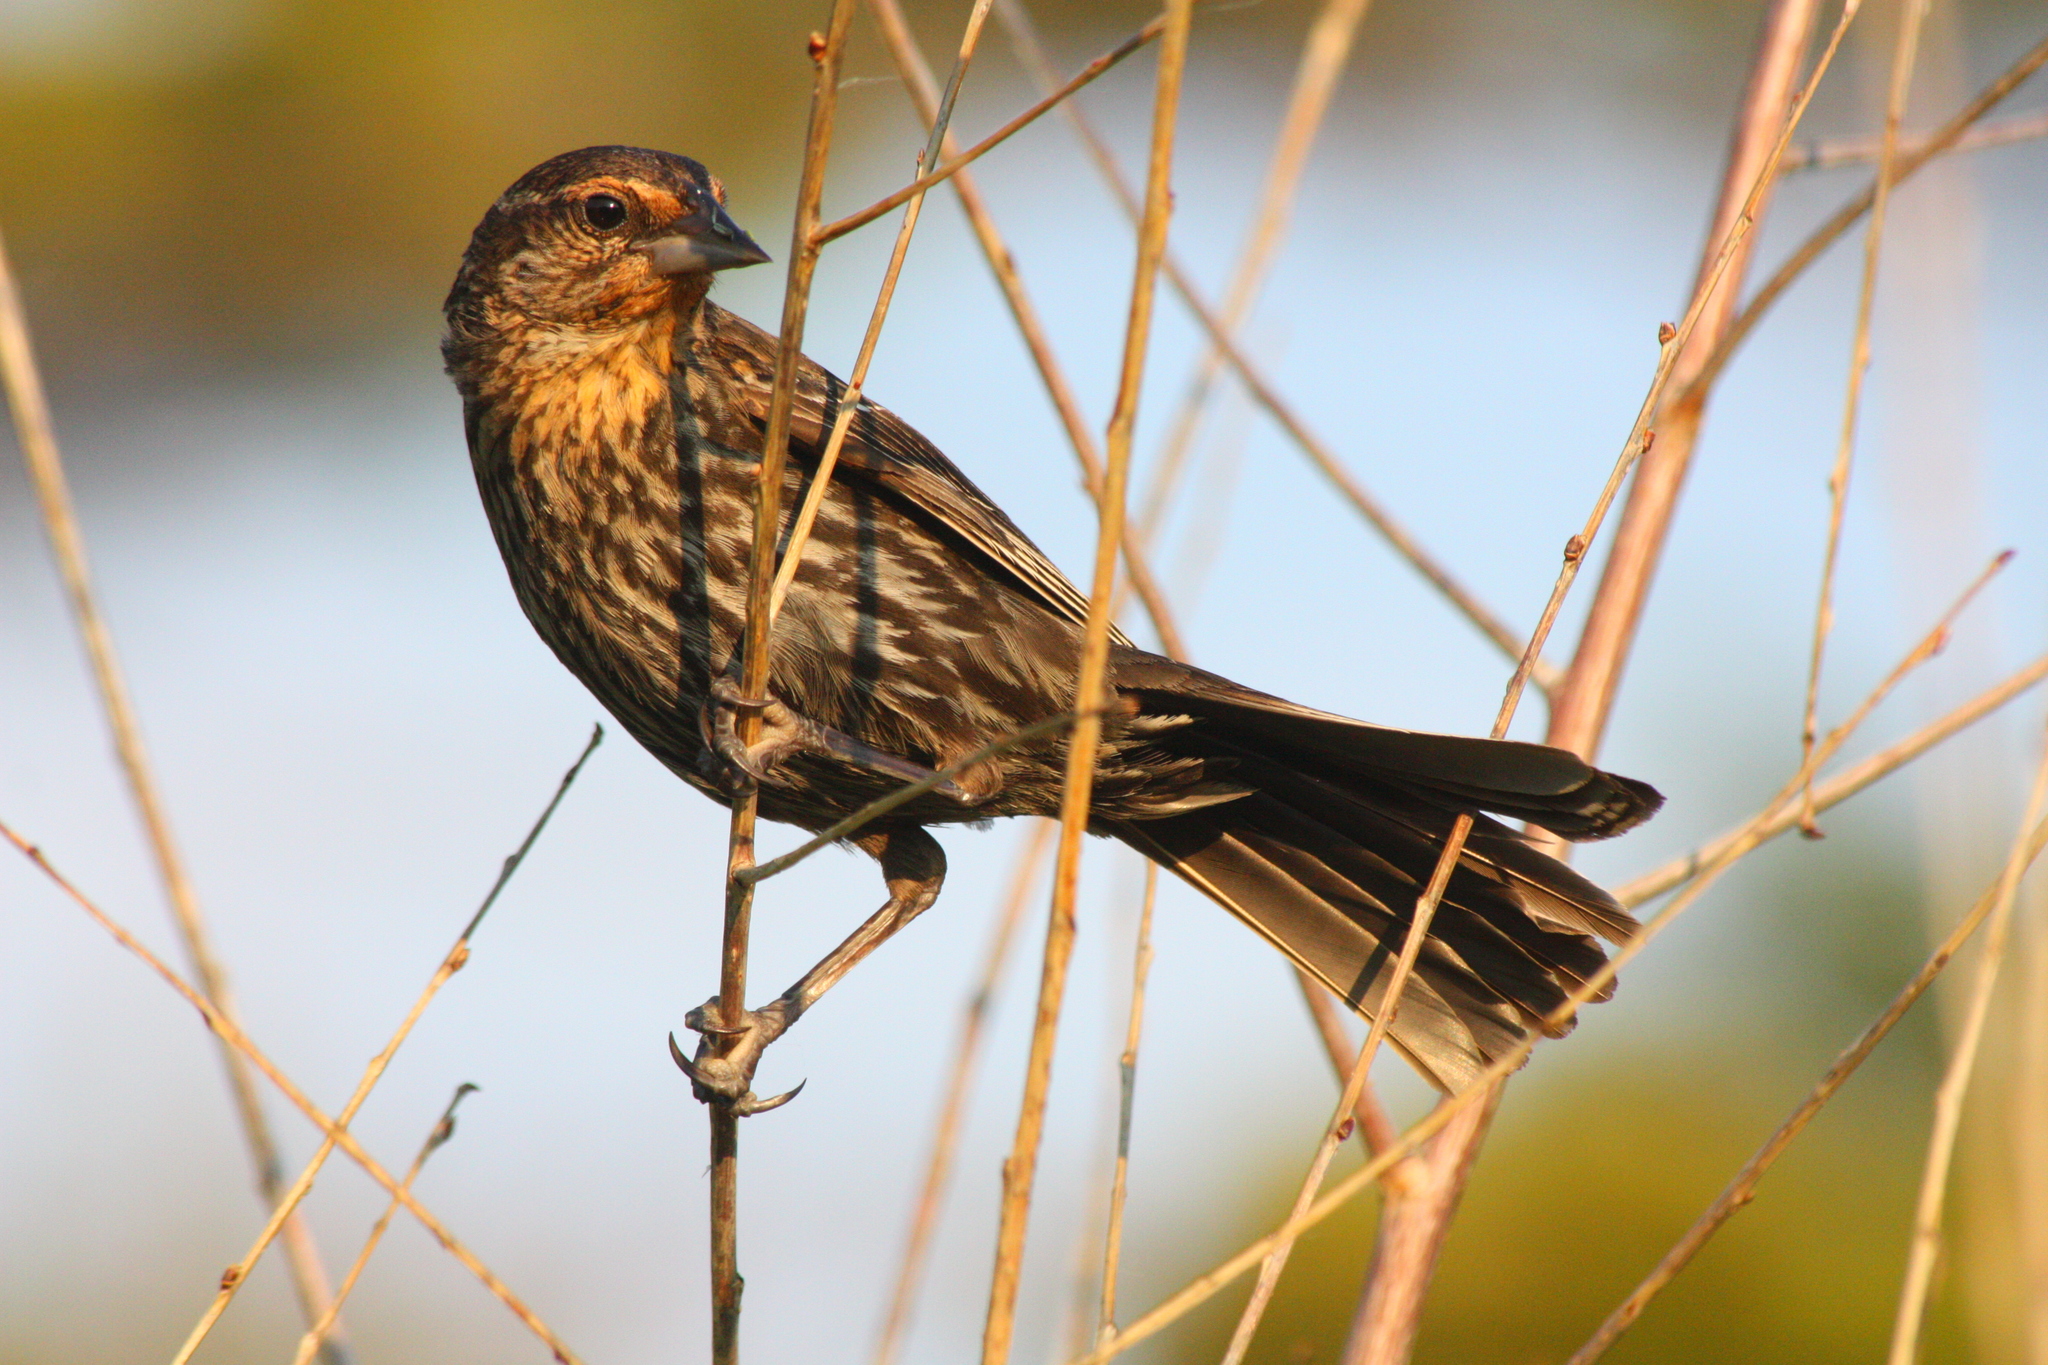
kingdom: Animalia
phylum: Chordata
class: Aves
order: Passeriformes
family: Icteridae
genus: Agelaius
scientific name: Agelaius phoeniceus
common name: Red-winged blackbird
